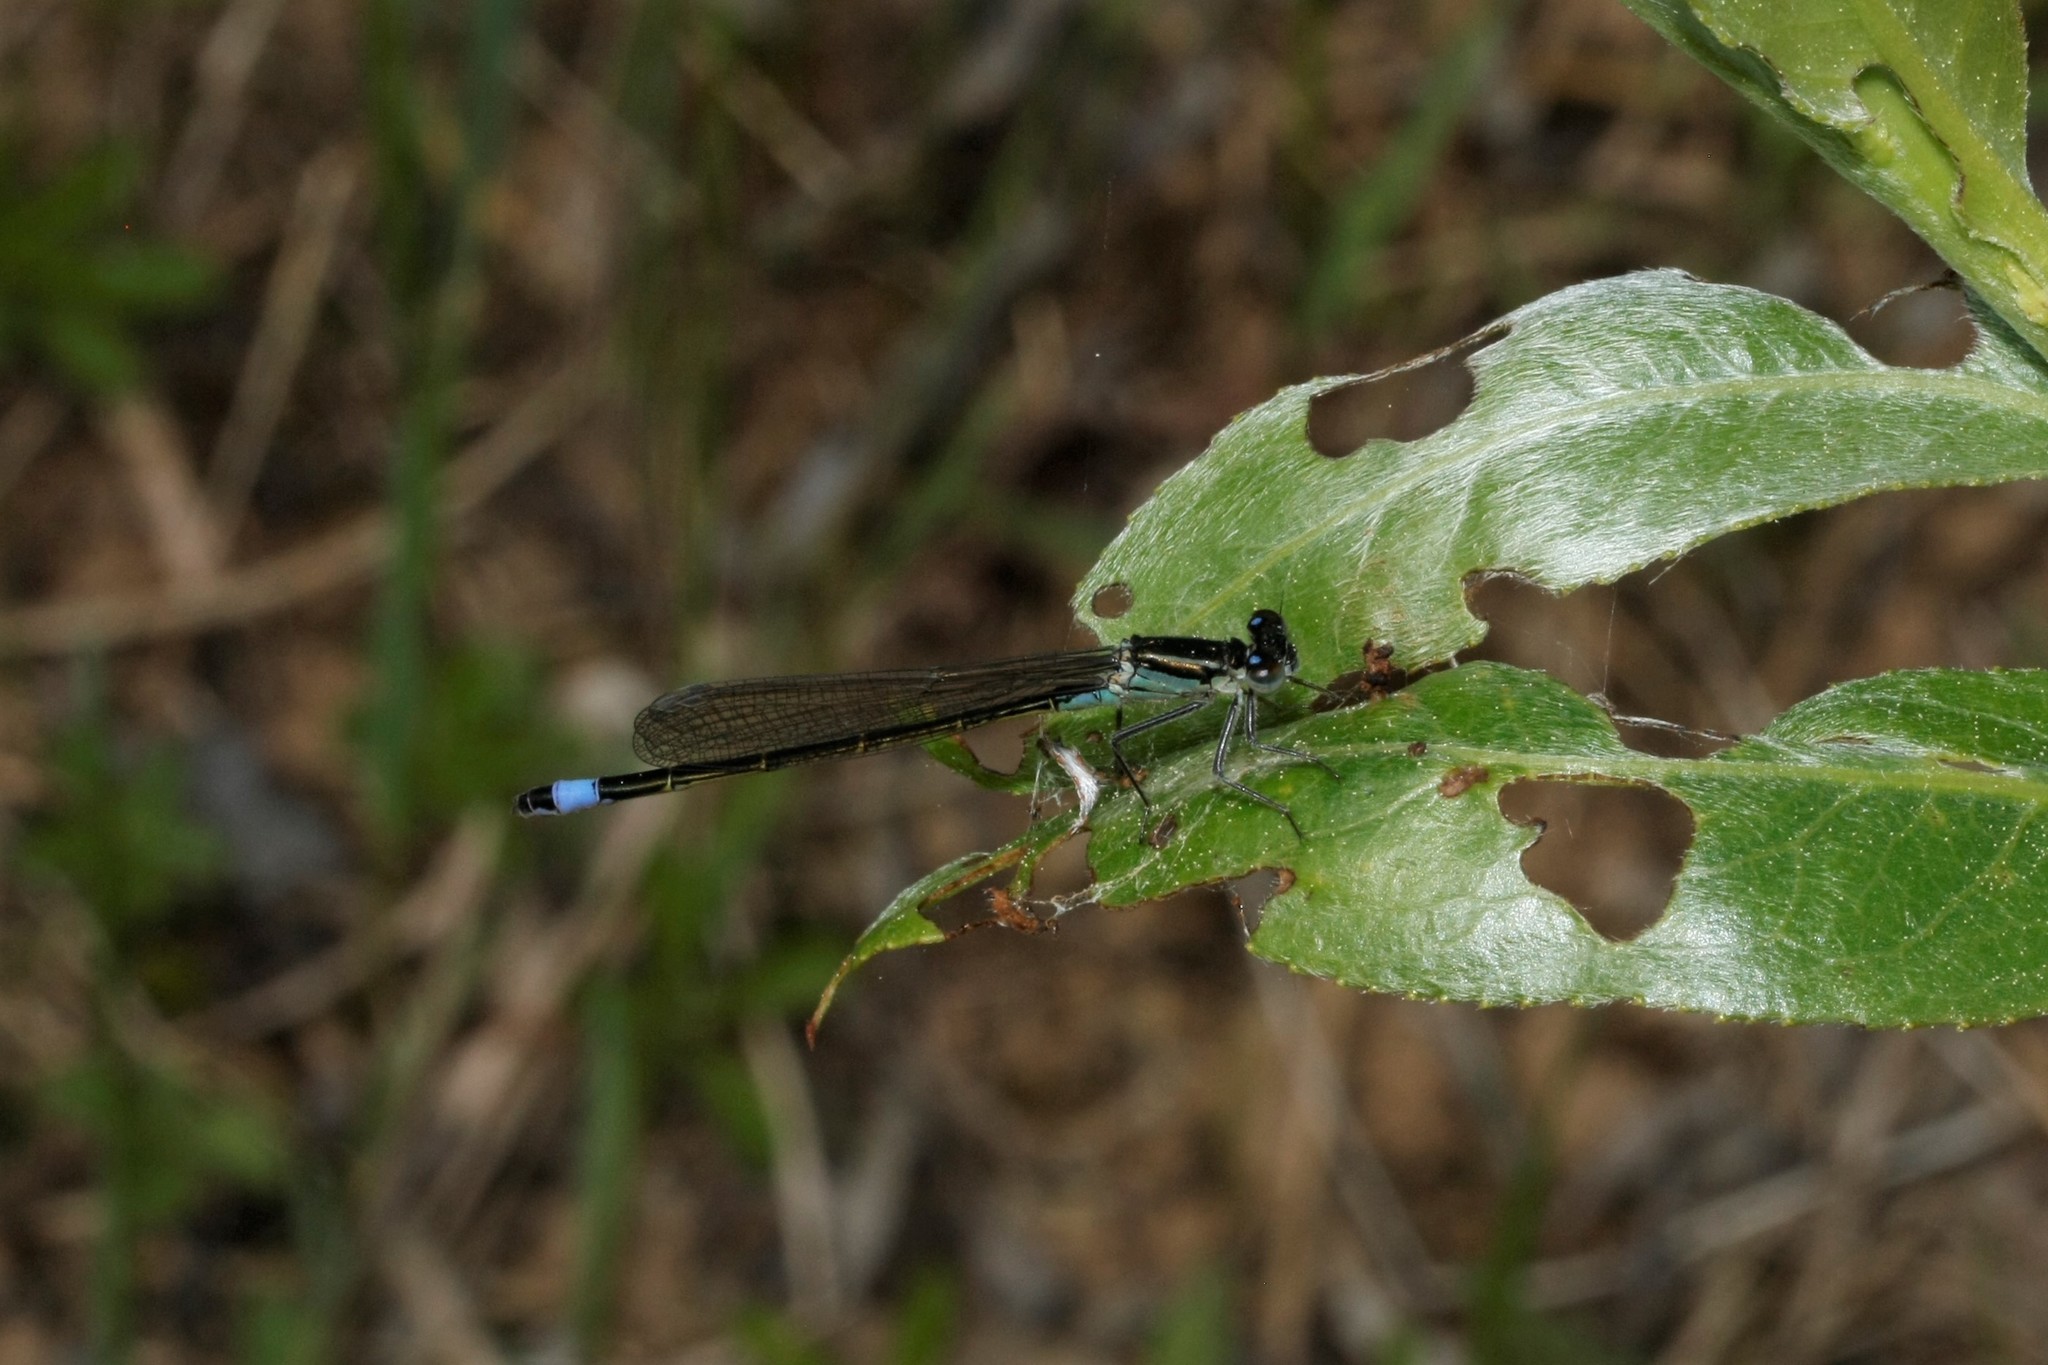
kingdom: Animalia
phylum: Arthropoda
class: Insecta
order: Odonata
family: Coenagrionidae
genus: Ischnura
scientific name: Ischnura elegans
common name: Blue-tailed damselfly
